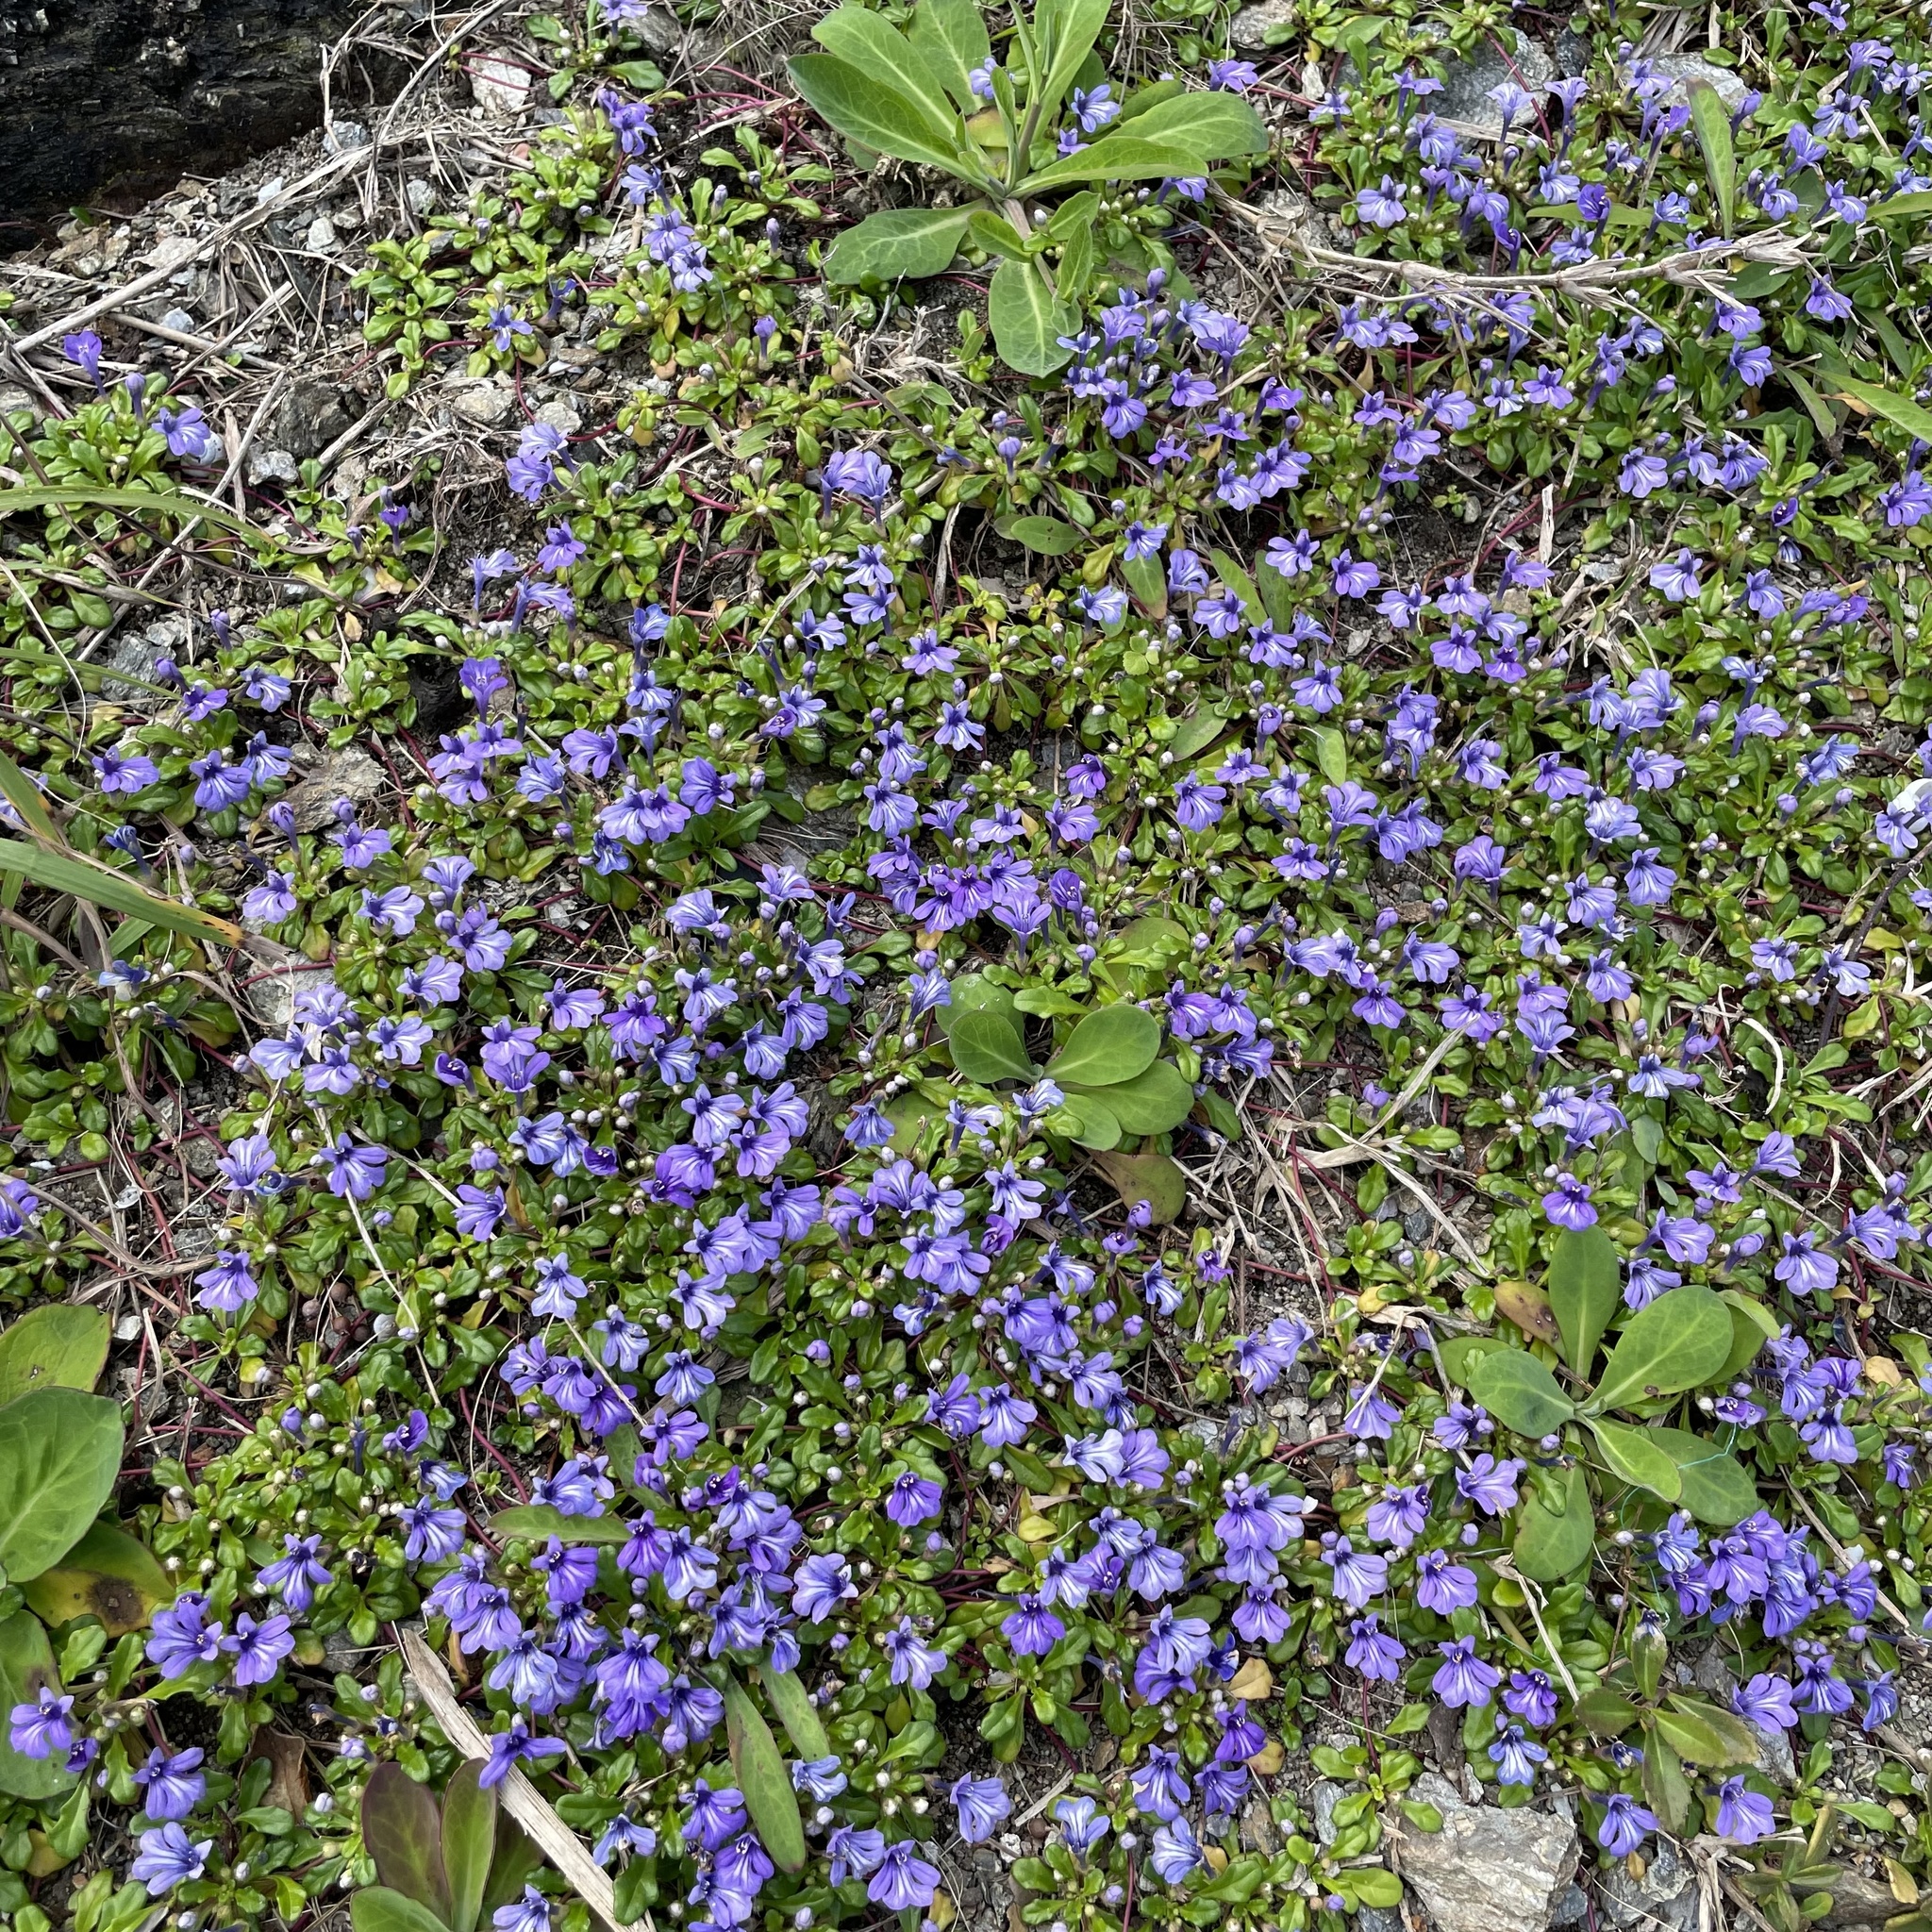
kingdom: Plantae
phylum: Tracheophyta
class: Magnoliopsida
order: Lamiales
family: Lamiaceae
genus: Ajuga
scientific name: Ajuga pygmaea
